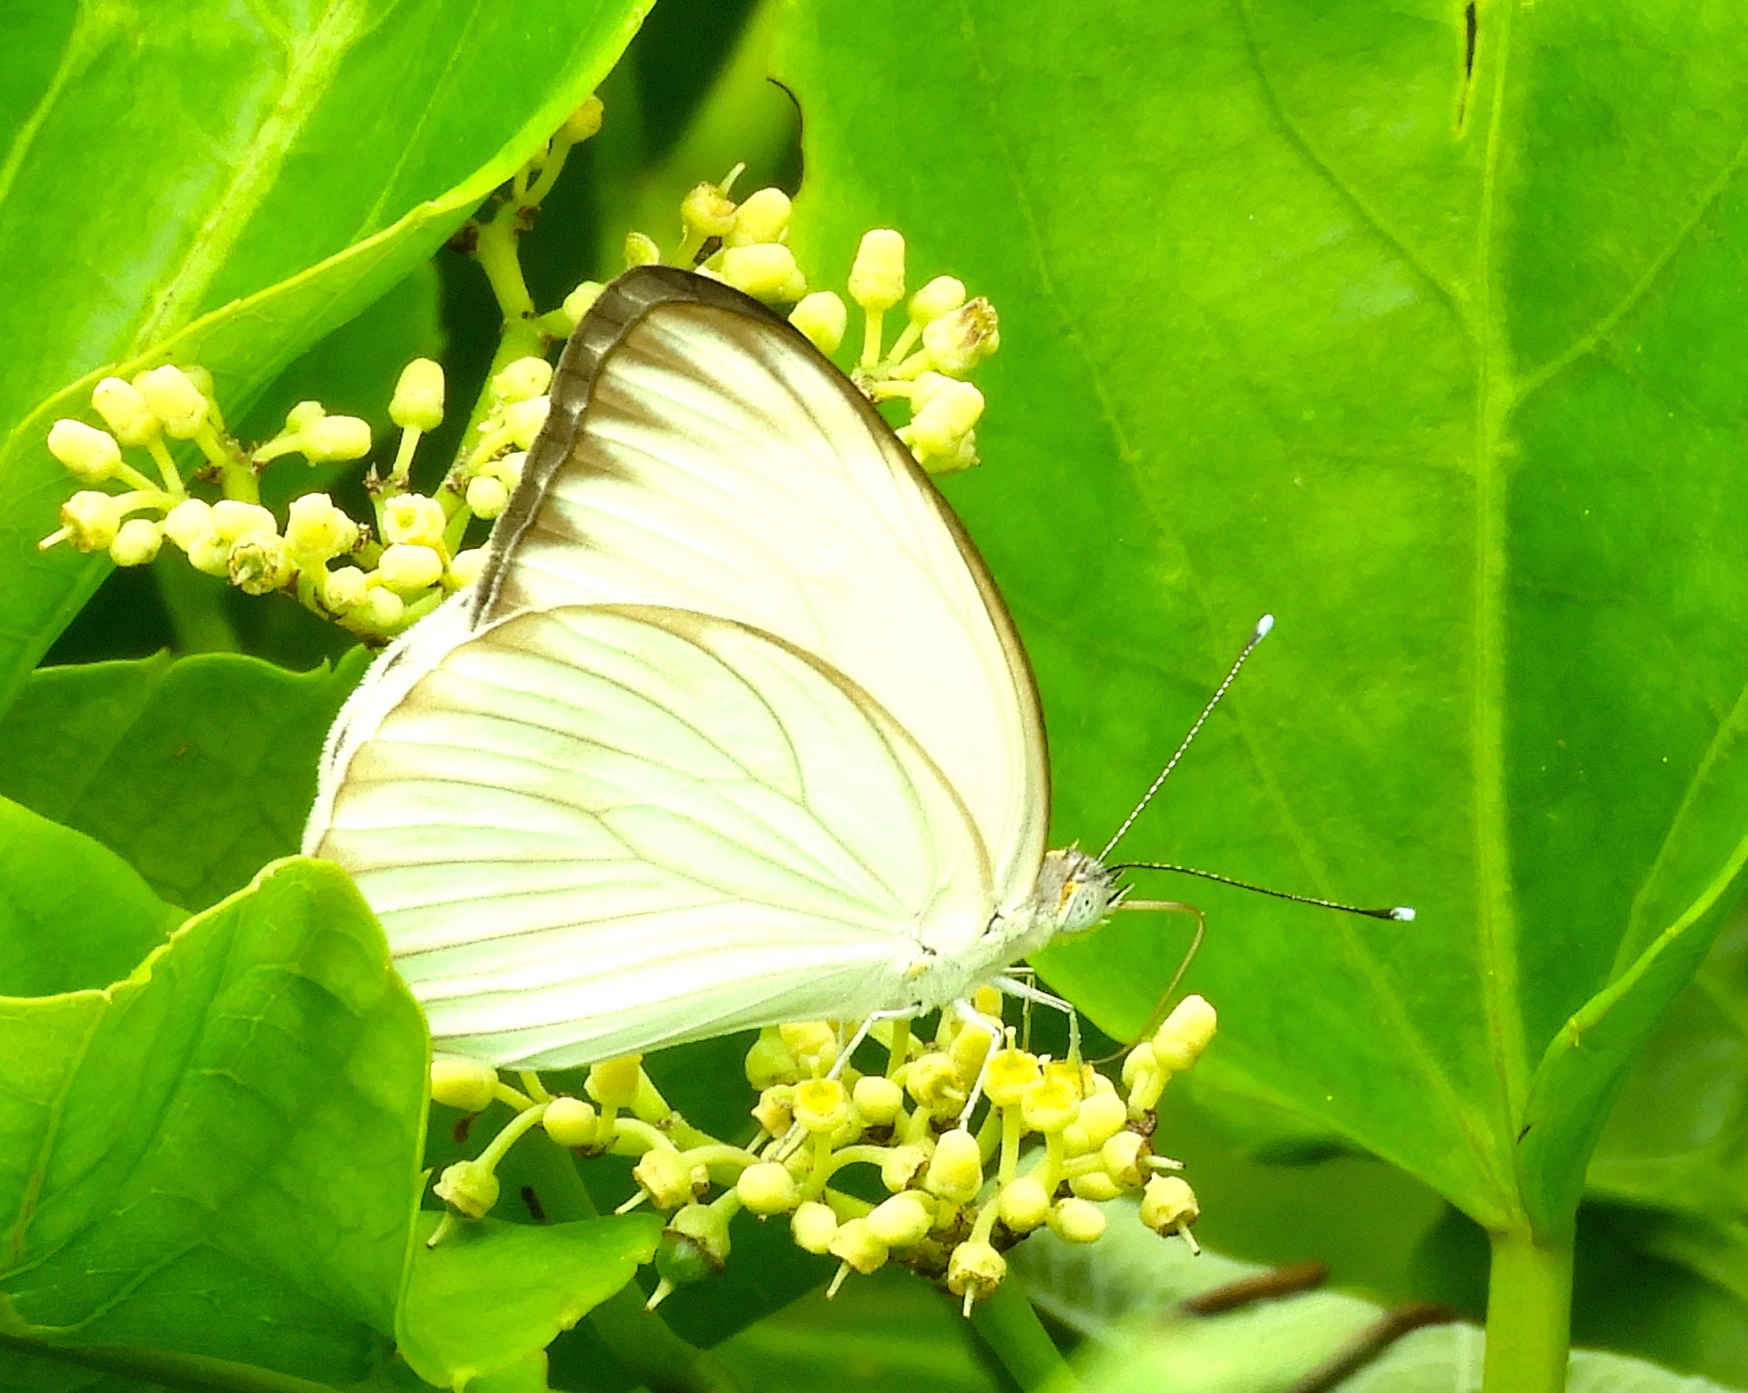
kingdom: Animalia
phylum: Arthropoda
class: Insecta
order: Lepidoptera
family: Pieridae
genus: Ascia
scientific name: Ascia monuste
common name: Great southern white
